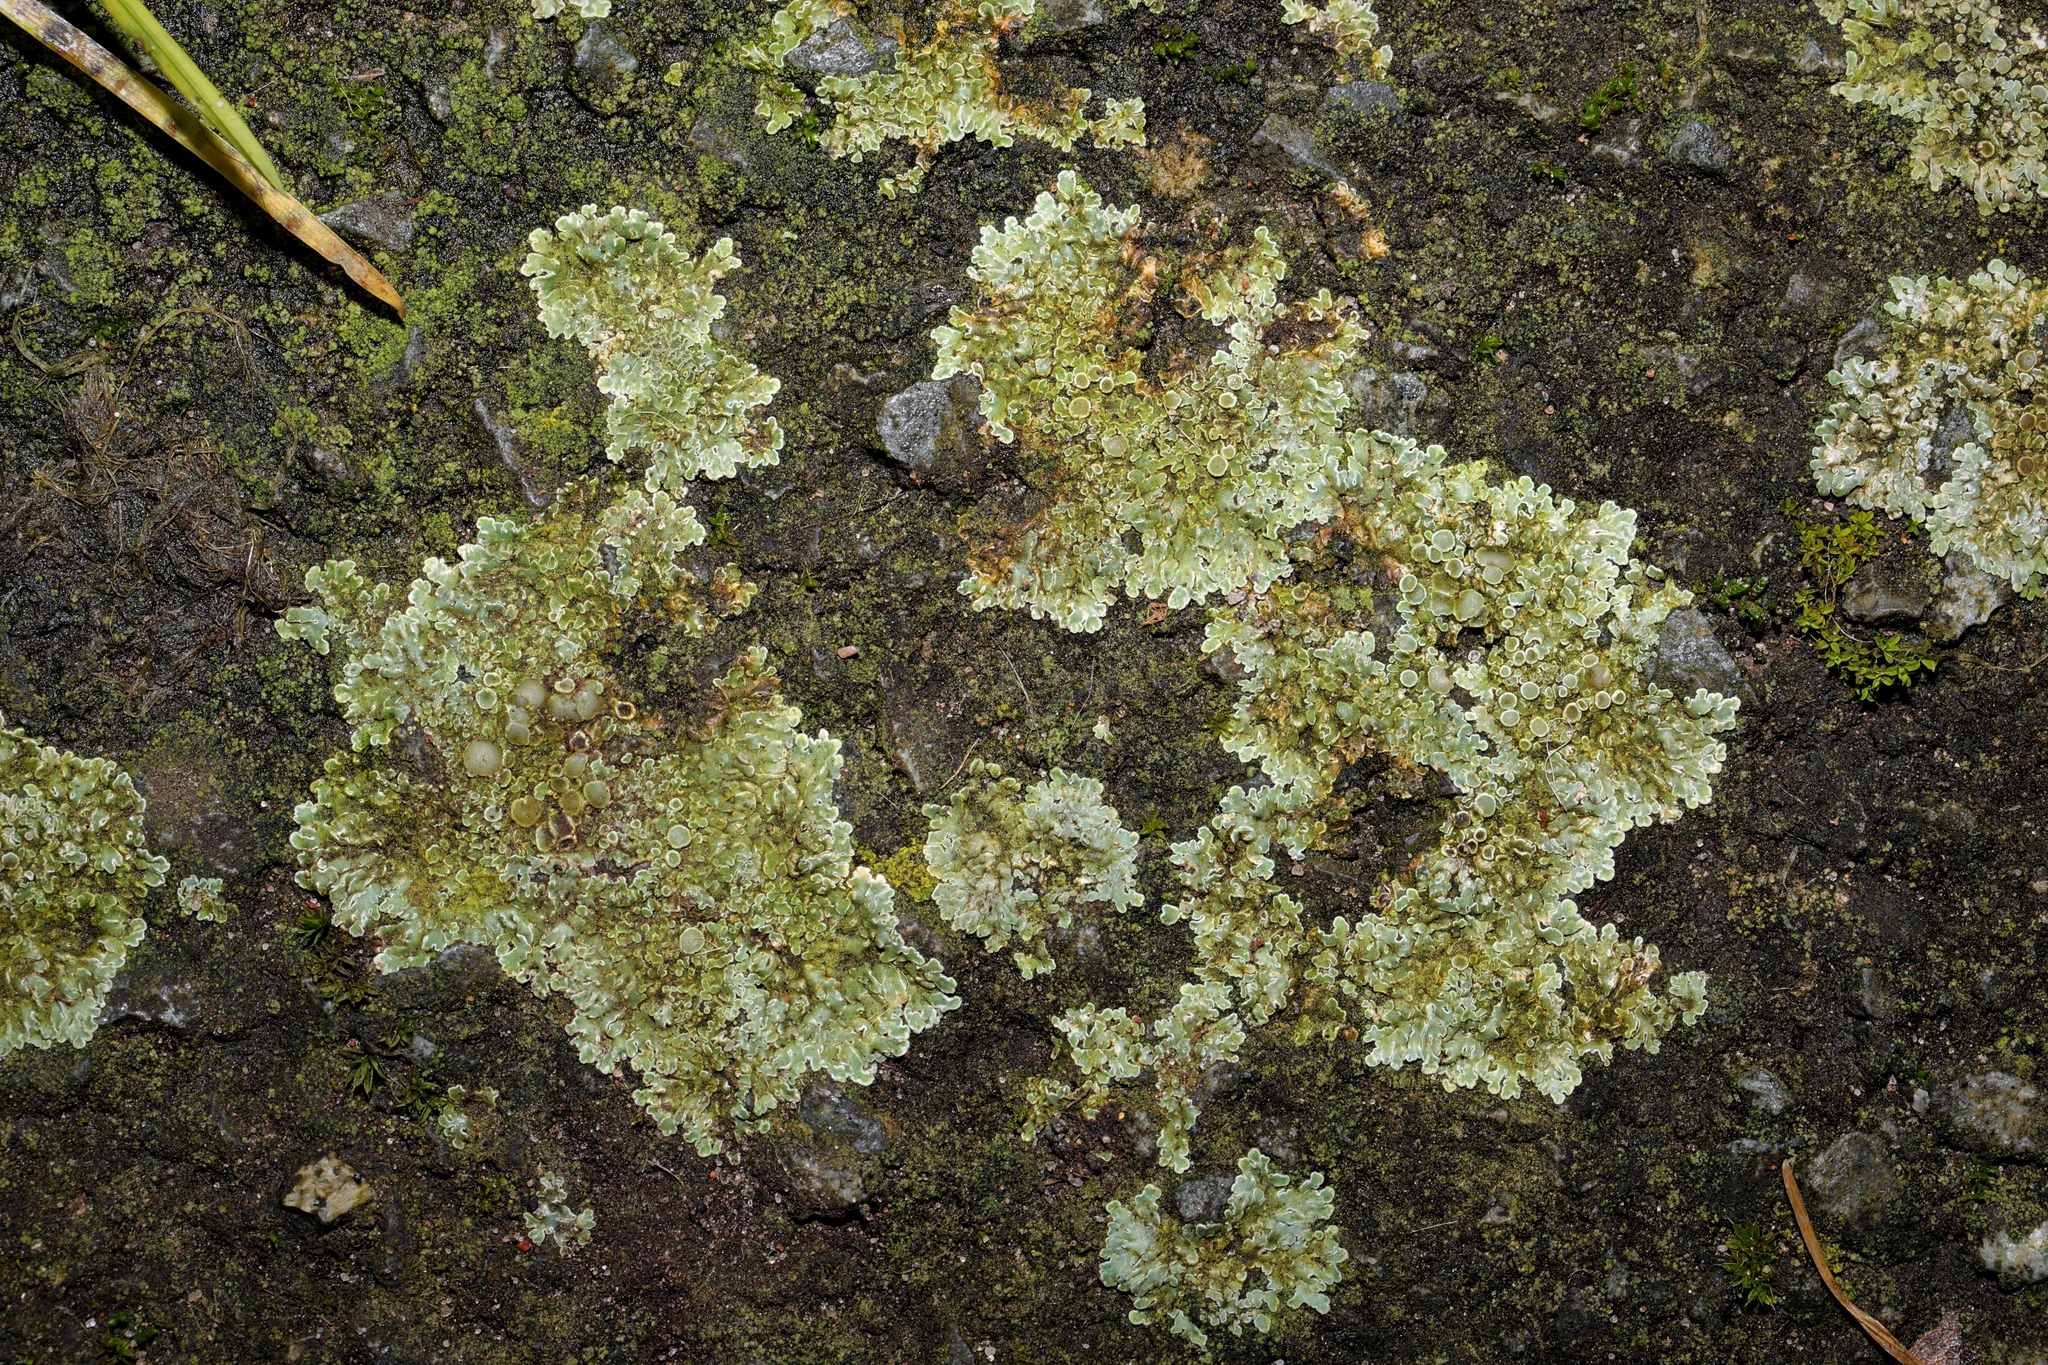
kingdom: Fungi
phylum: Ascomycota
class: Lecanoromycetes
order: Lecanorales
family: Lecanoraceae
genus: Protoparmeliopsis
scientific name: Protoparmeliopsis muralis
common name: Stonewall rim lichen
